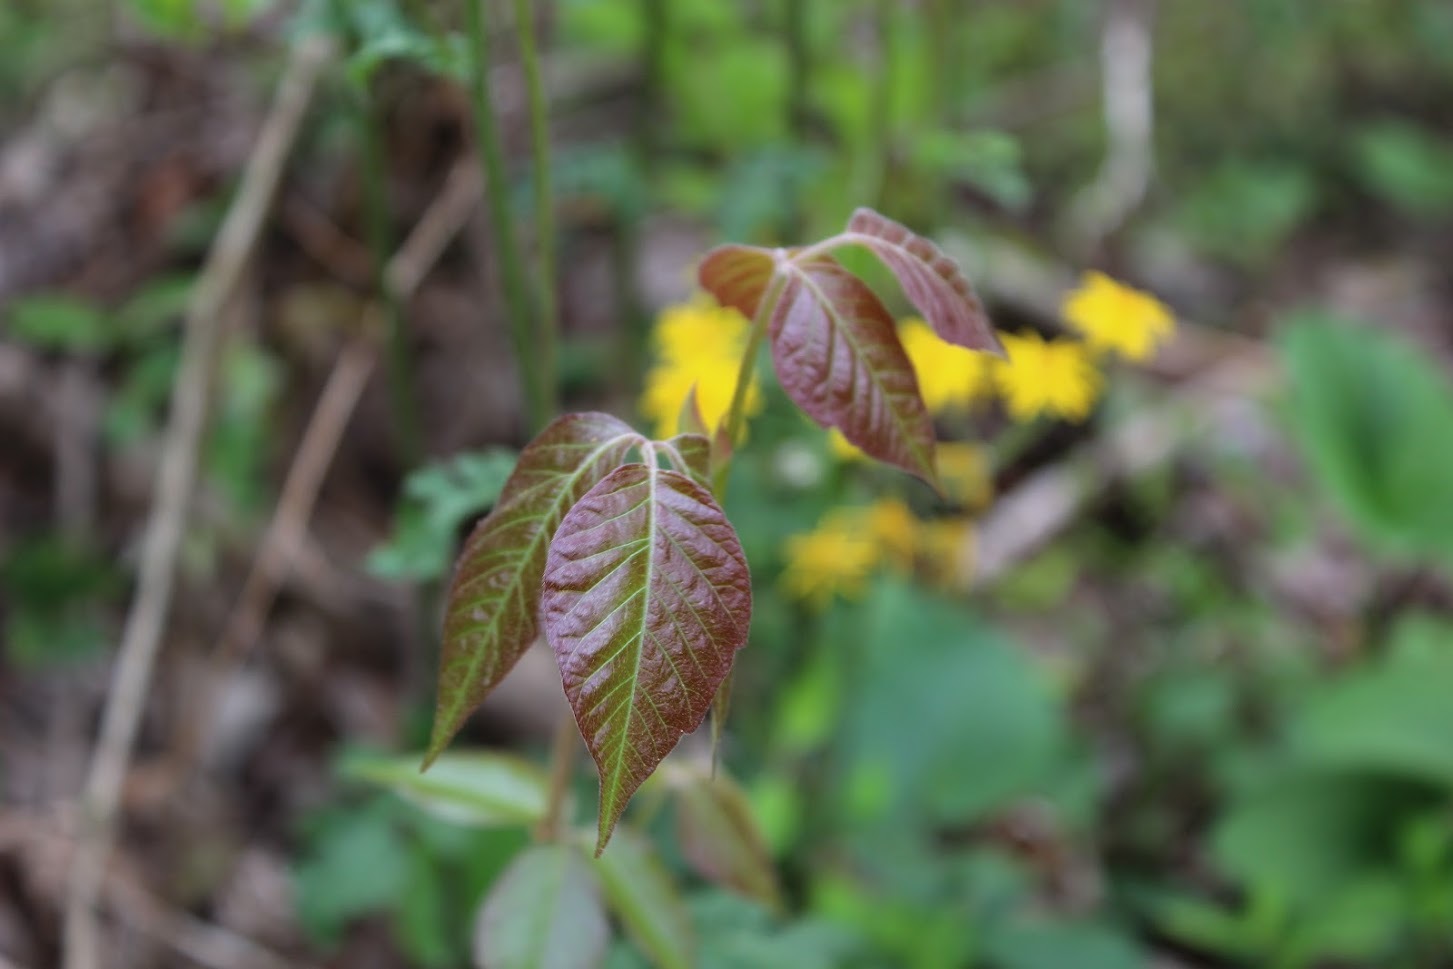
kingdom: Plantae
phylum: Tracheophyta
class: Magnoliopsida
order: Sapindales
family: Anacardiaceae
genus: Toxicodendron
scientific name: Toxicodendron radicans
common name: Poison ivy
